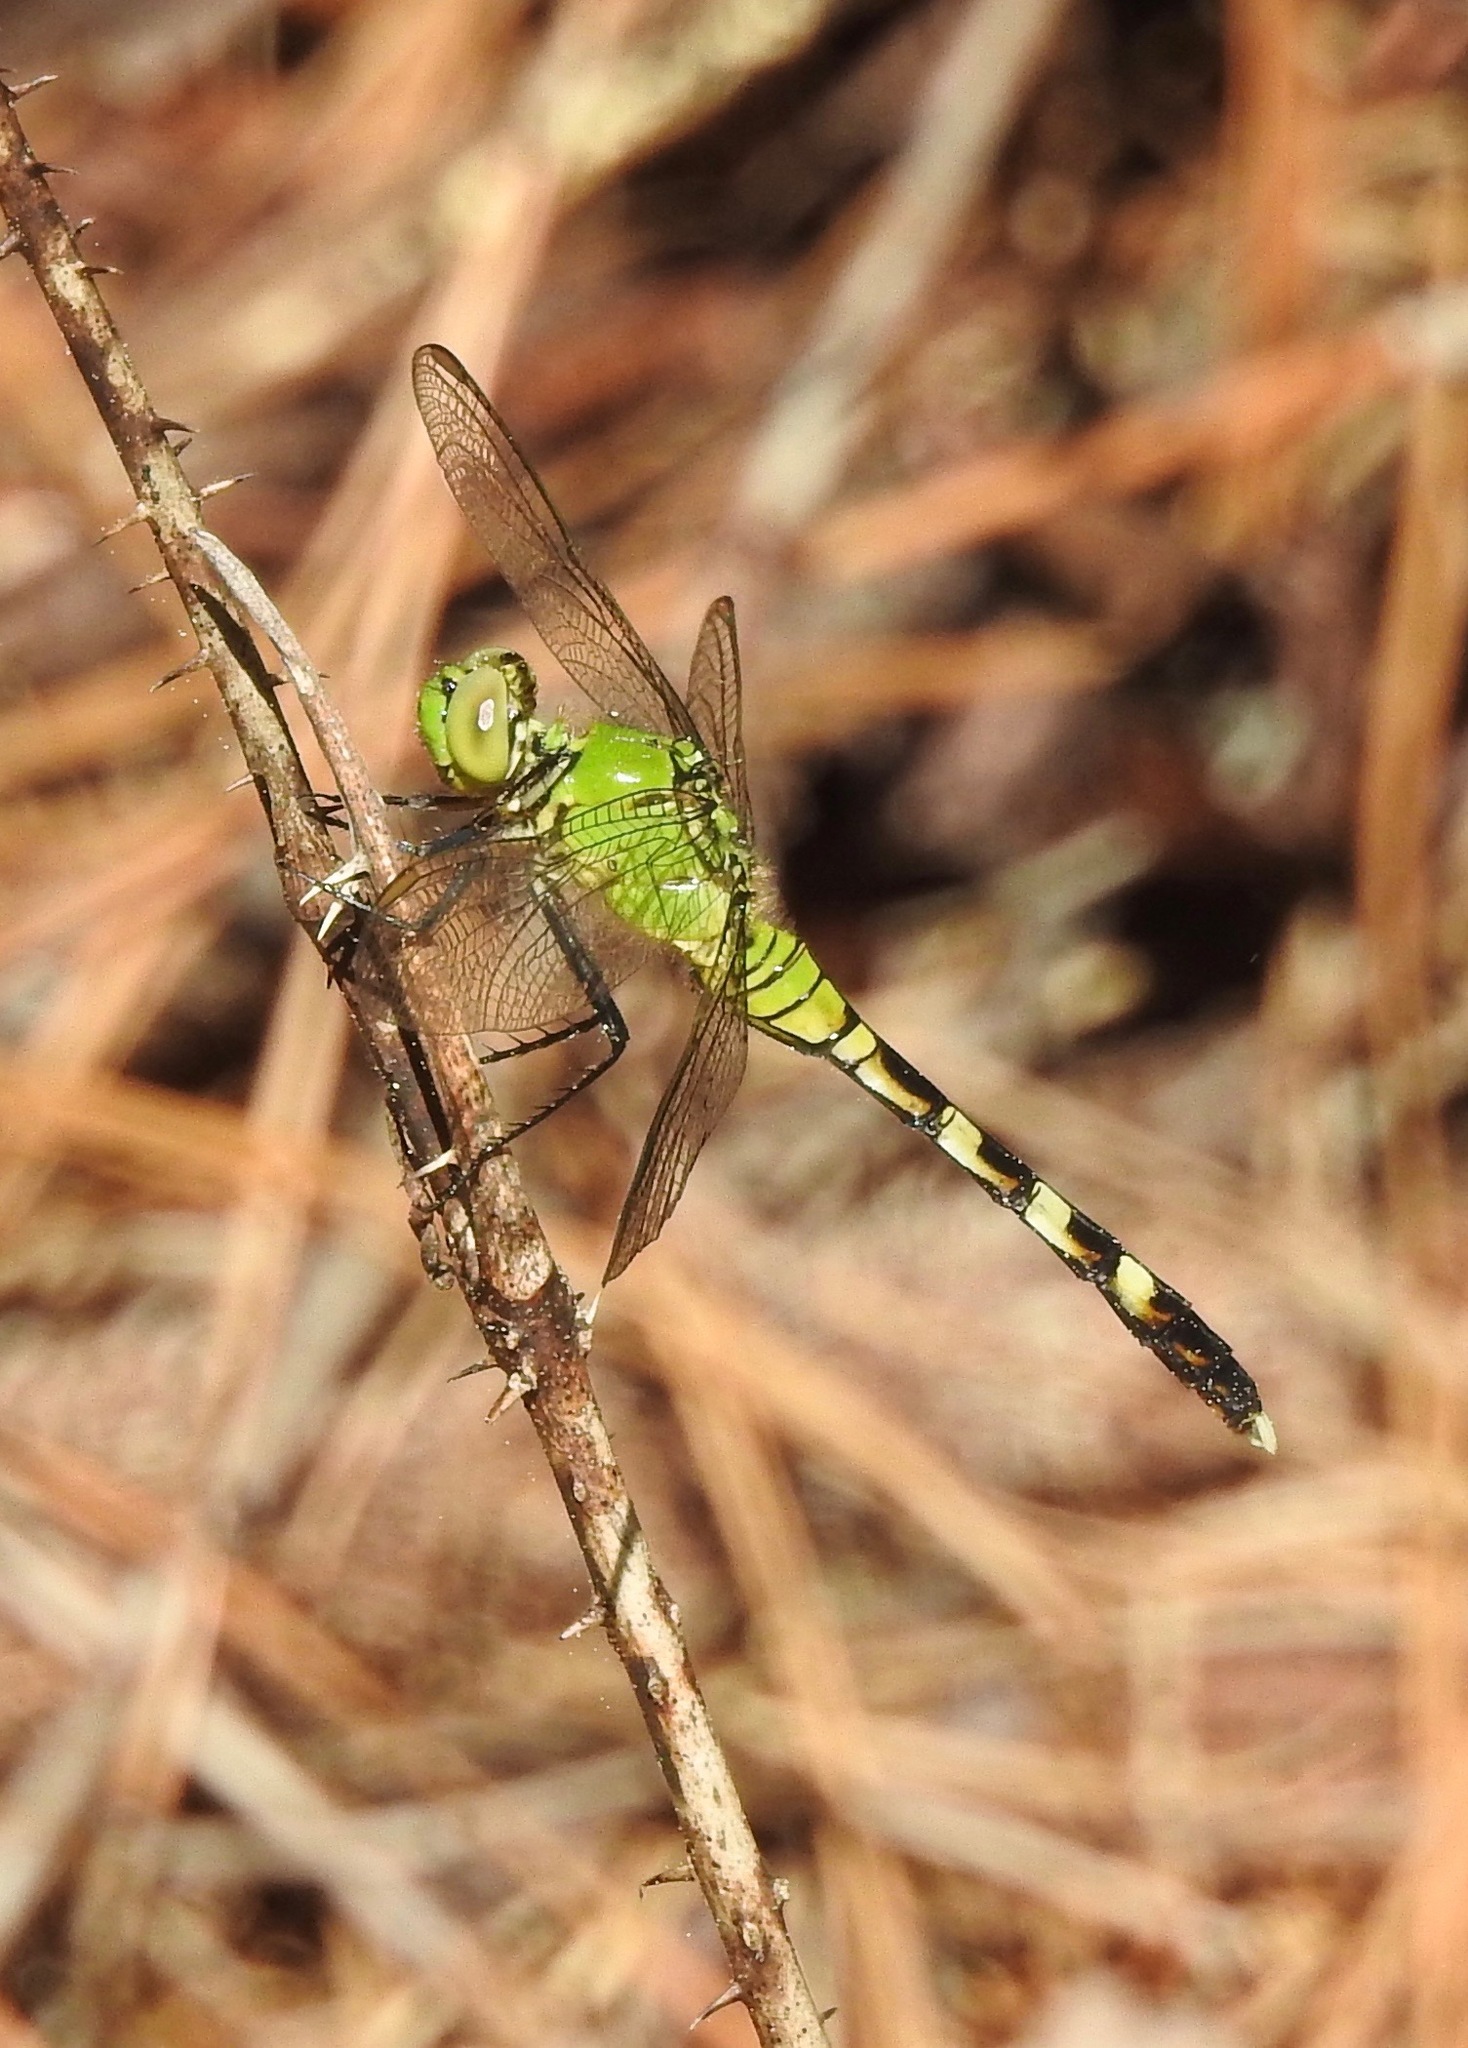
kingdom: Animalia
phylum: Arthropoda
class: Insecta
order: Odonata
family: Libellulidae
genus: Erythemis
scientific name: Erythemis simplicicollis
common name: Eastern pondhawk
